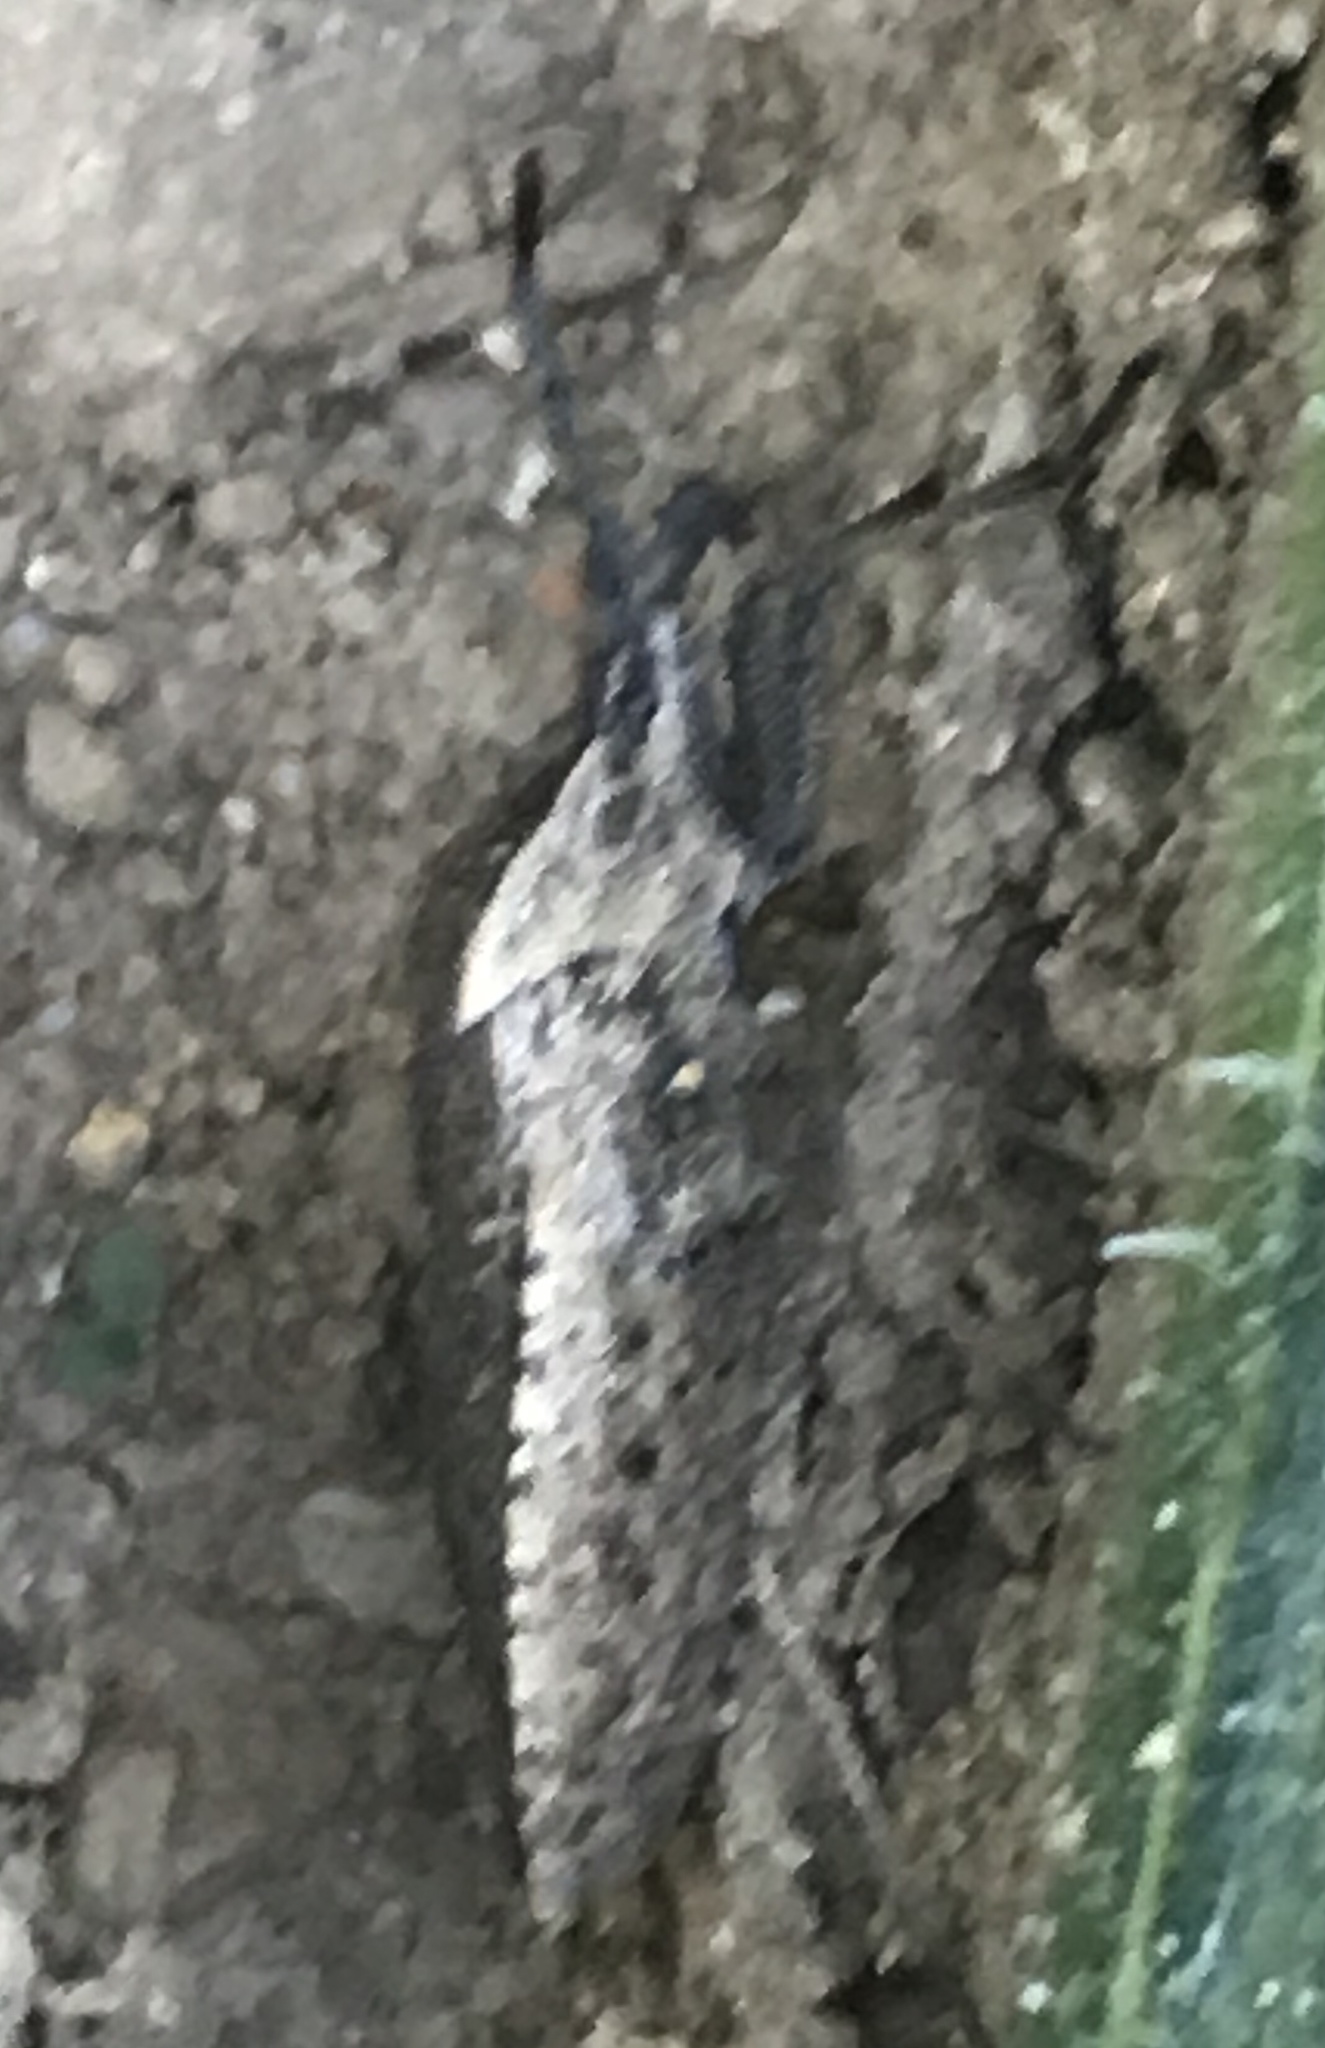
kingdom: Animalia
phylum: Arthropoda
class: Insecta
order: Hemiptera
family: Coreidae
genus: Anasa
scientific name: Anasa tristis
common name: Squash bug
